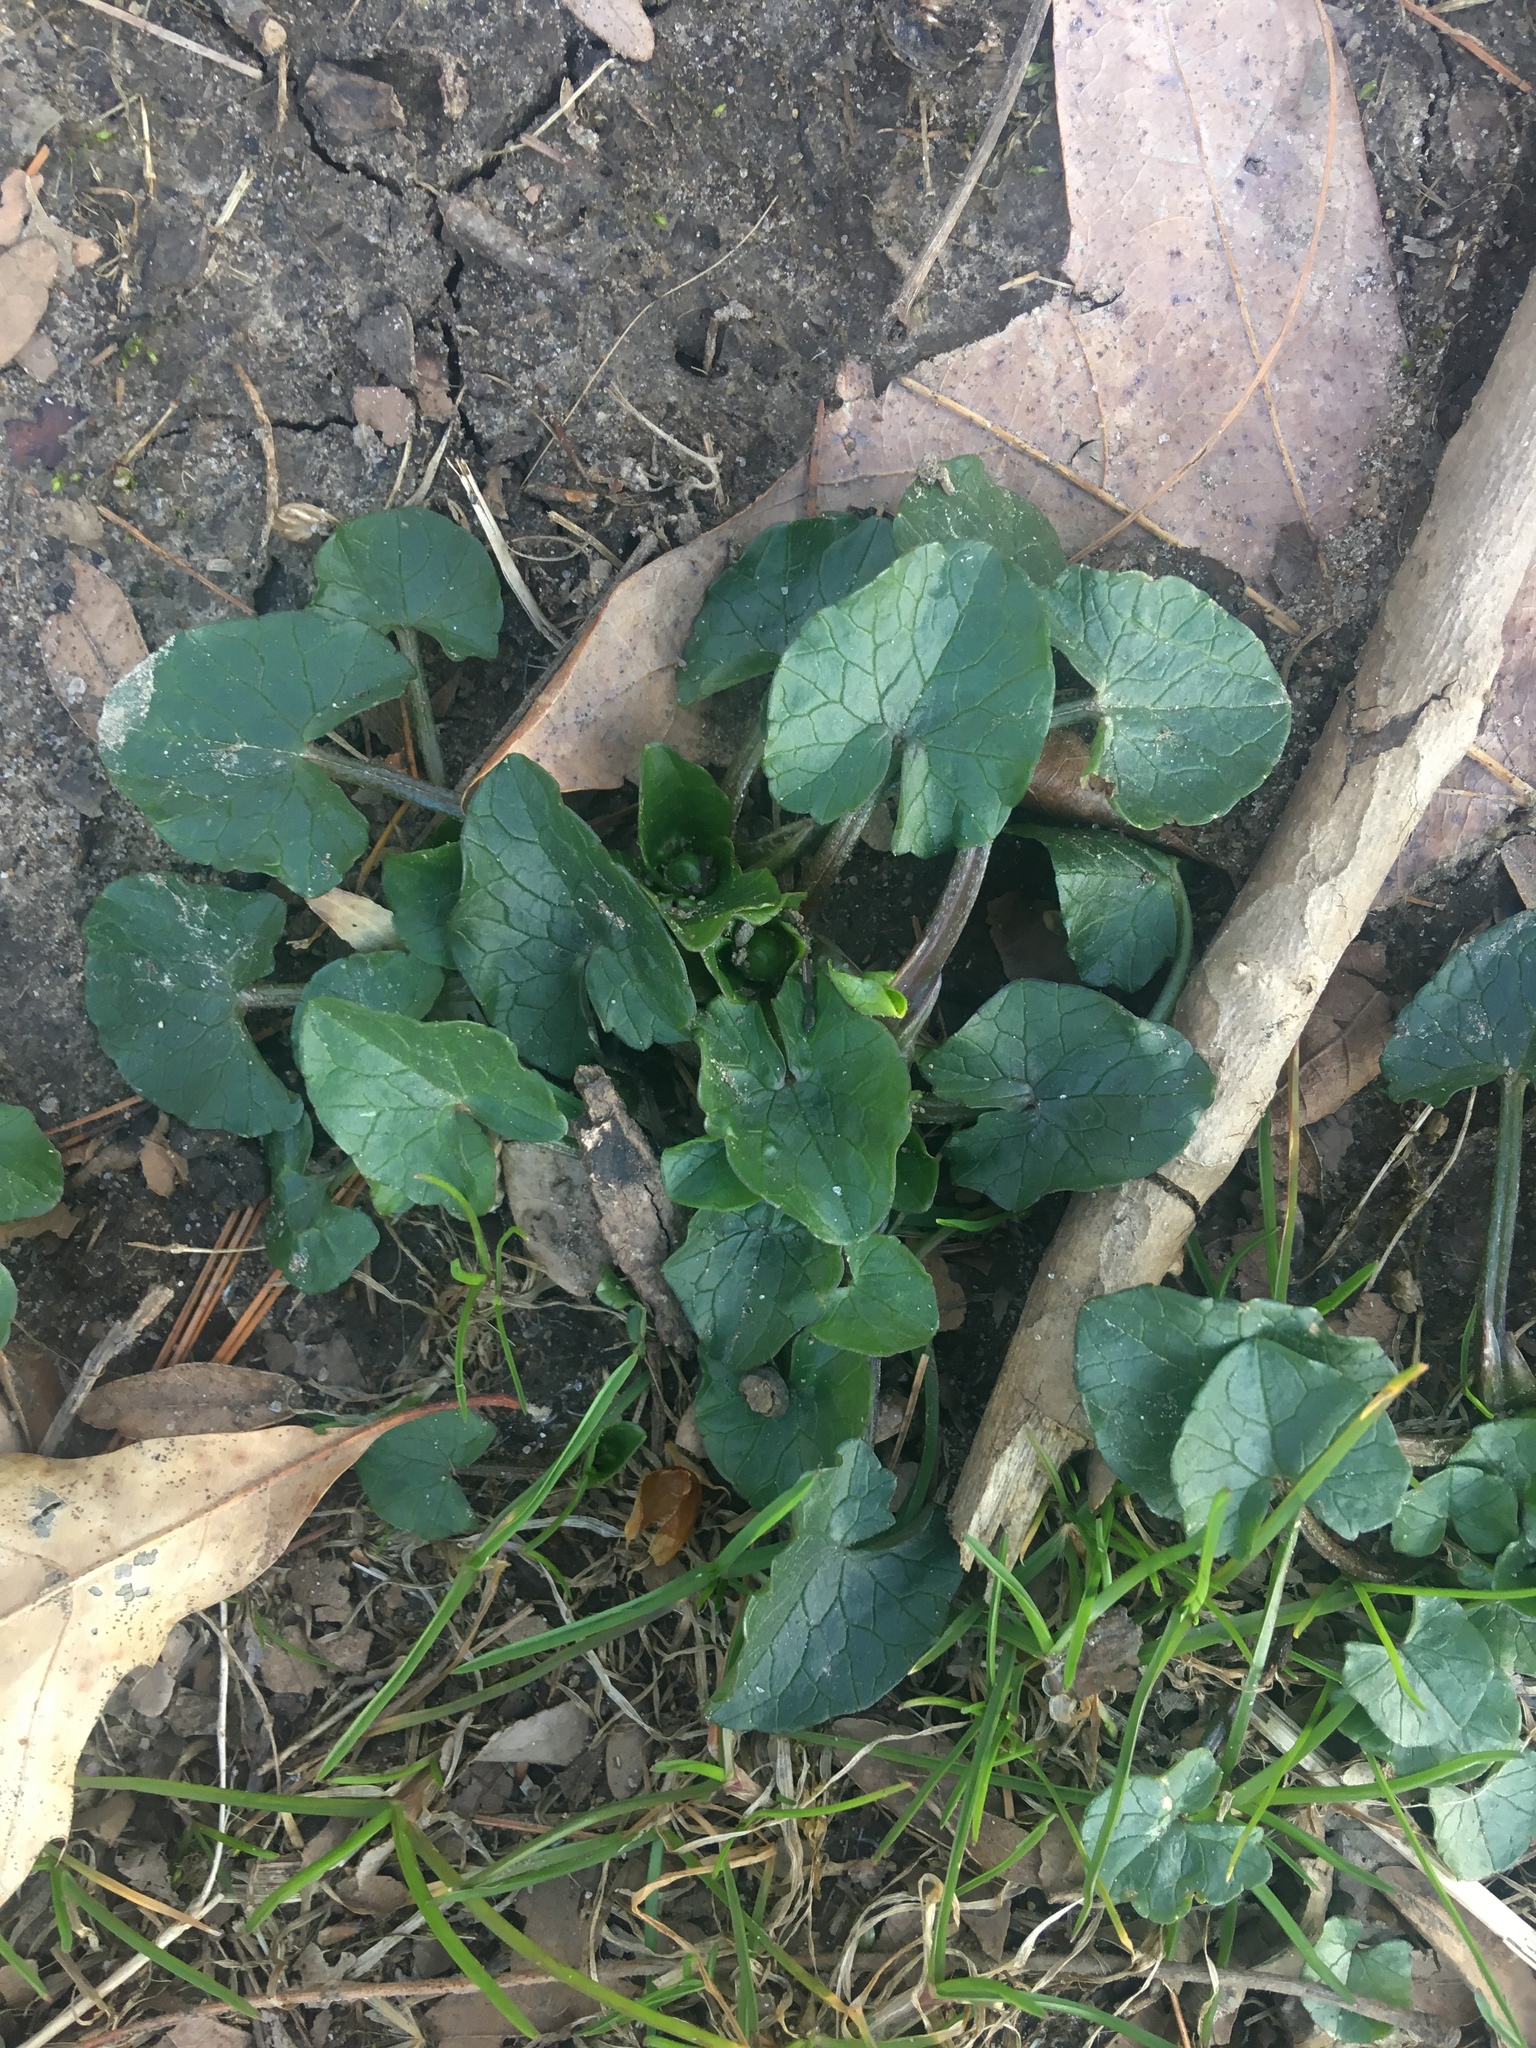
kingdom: Plantae
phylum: Tracheophyta
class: Magnoliopsida
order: Ranunculales
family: Ranunculaceae
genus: Ficaria
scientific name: Ficaria verna
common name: Lesser celandine
